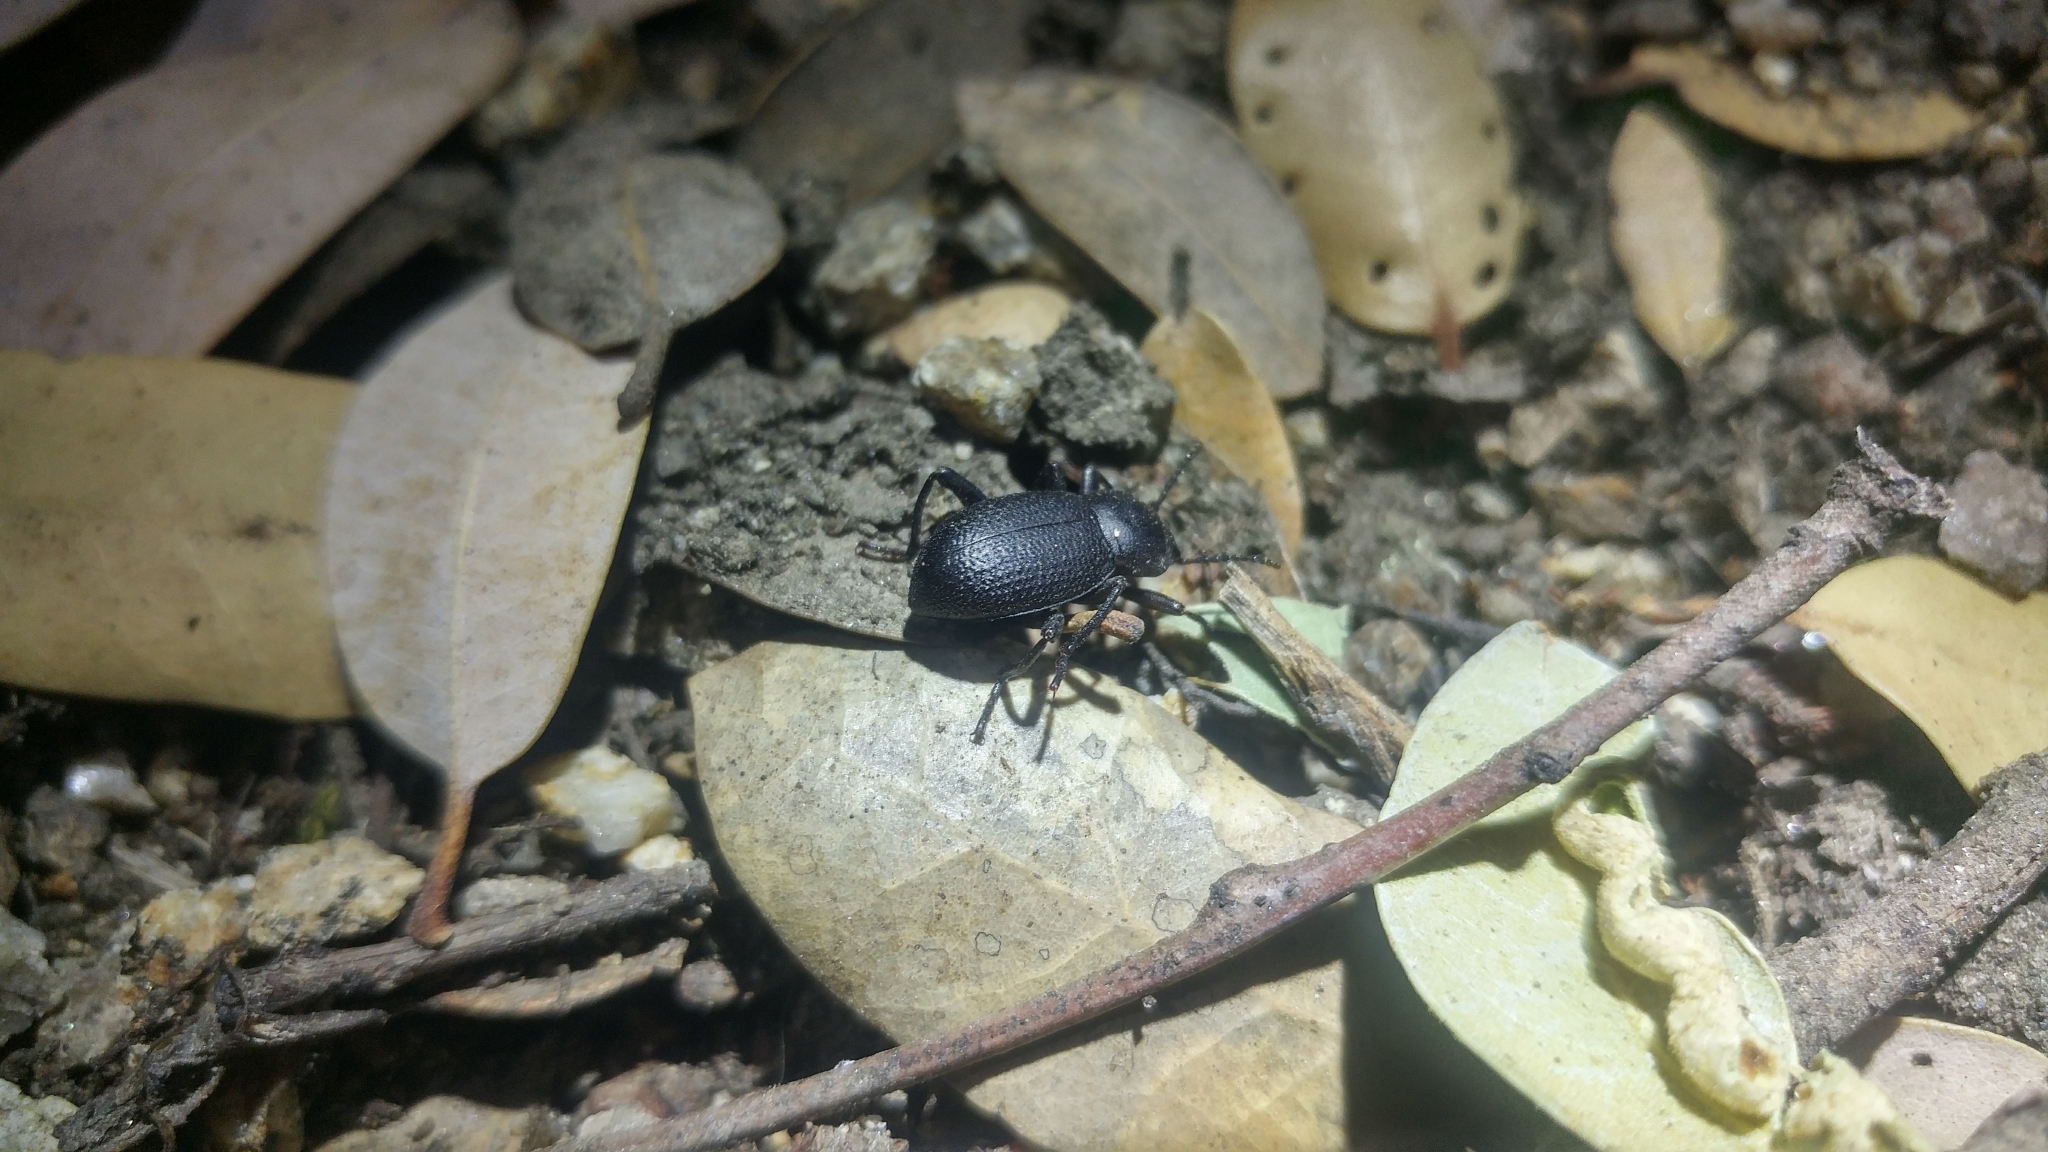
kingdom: Animalia
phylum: Arthropoda
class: Insecta
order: Coleoptera
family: Tenebrionidae
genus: Eleodimorpha
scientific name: Eleodimorpha bolcan
